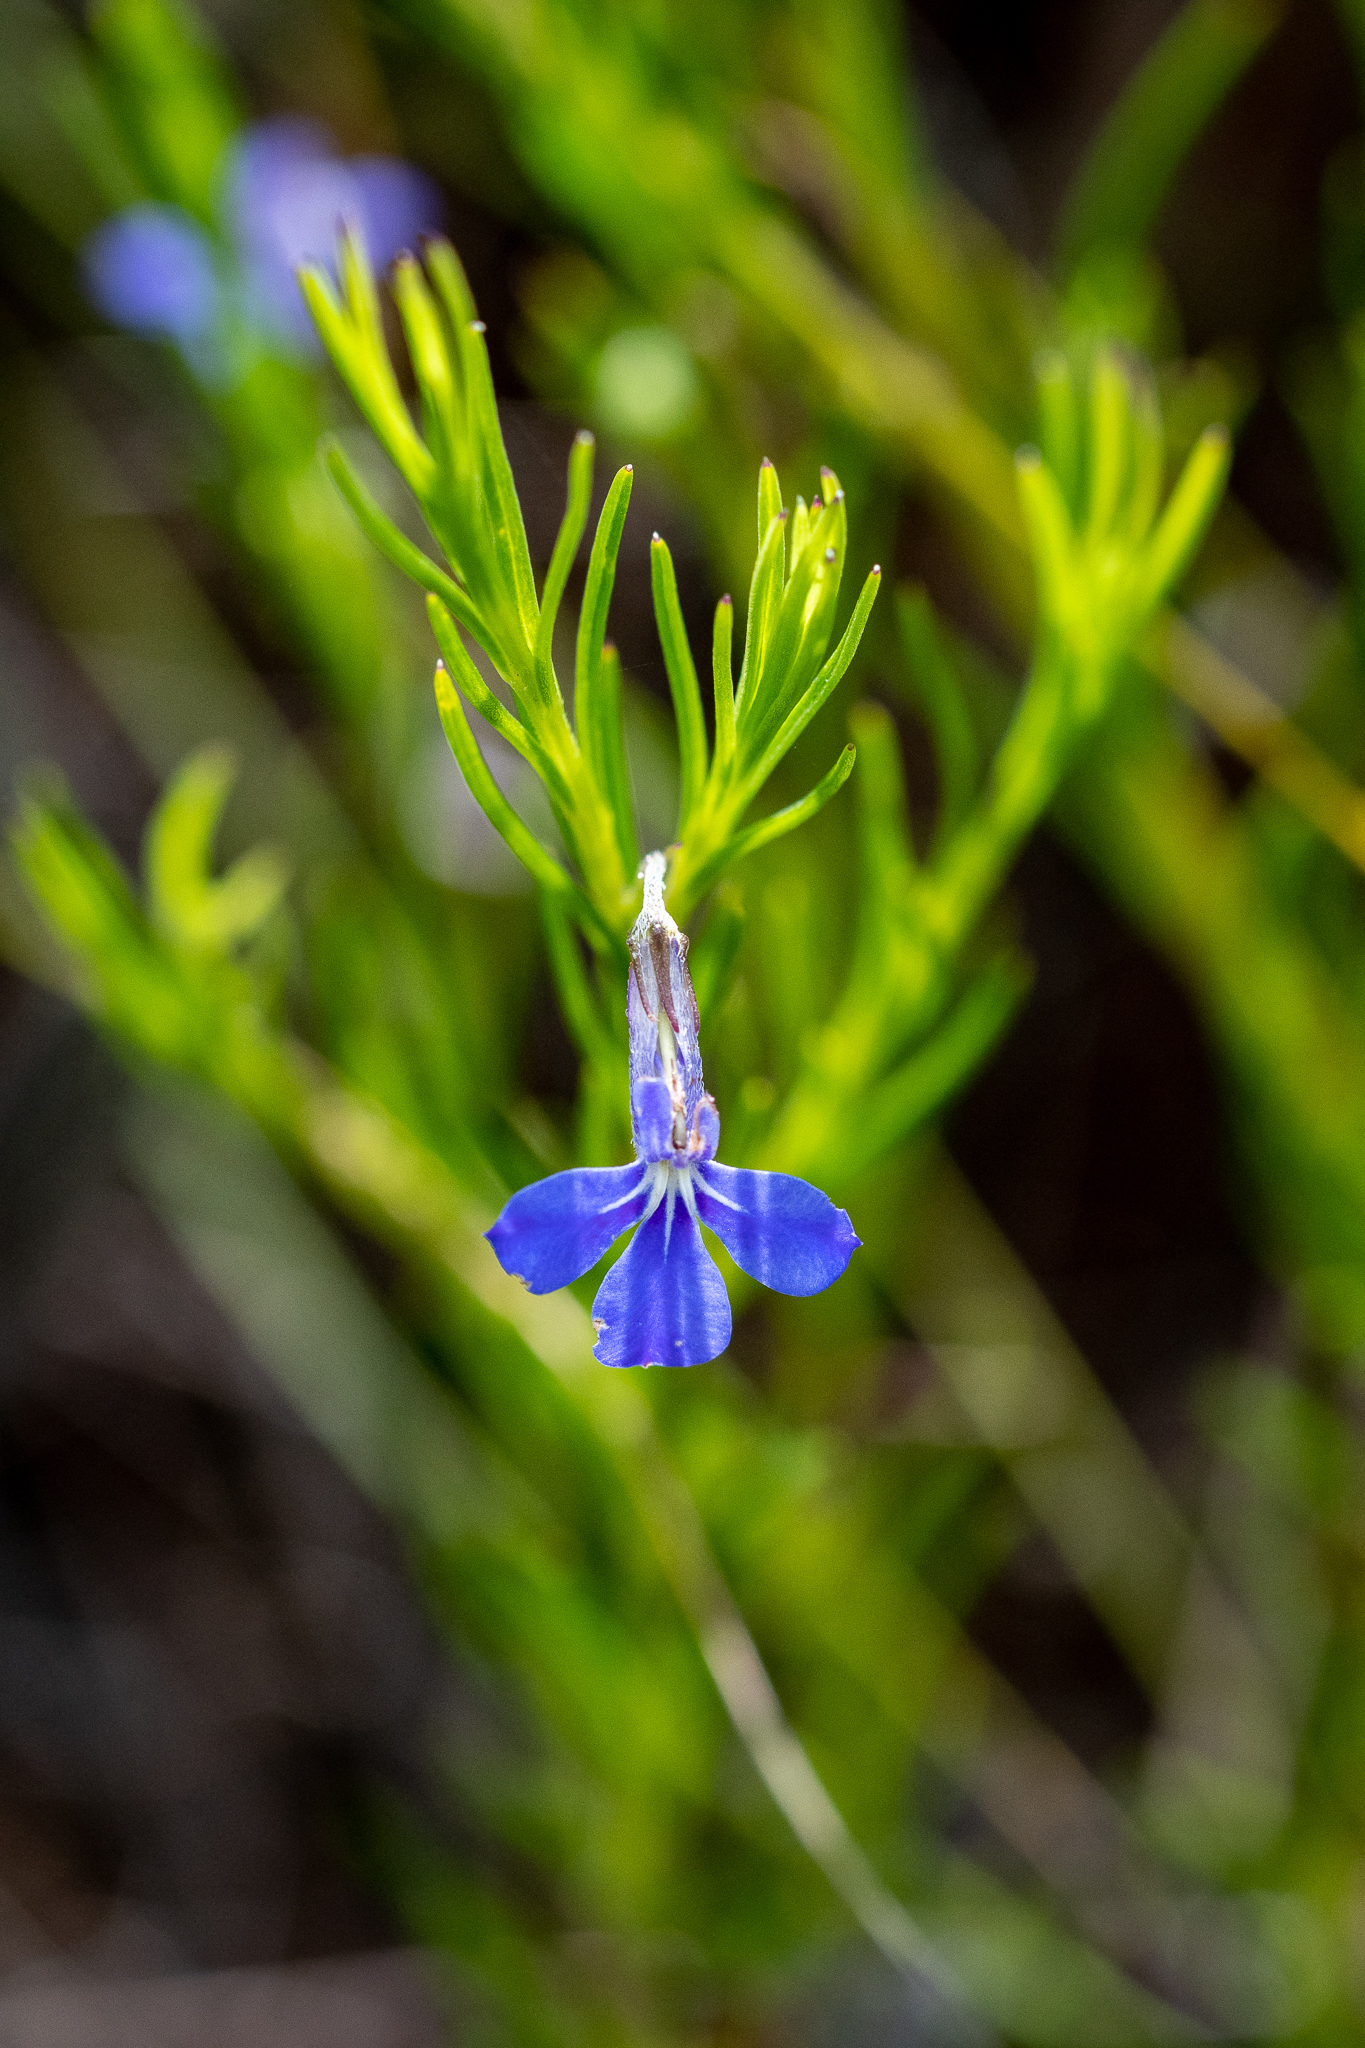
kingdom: Plantae
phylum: Tracheophyta
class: Magnoliopsida
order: Asterales
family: Campanulaceae
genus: Lobelia
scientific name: Lobelia pinifolia
